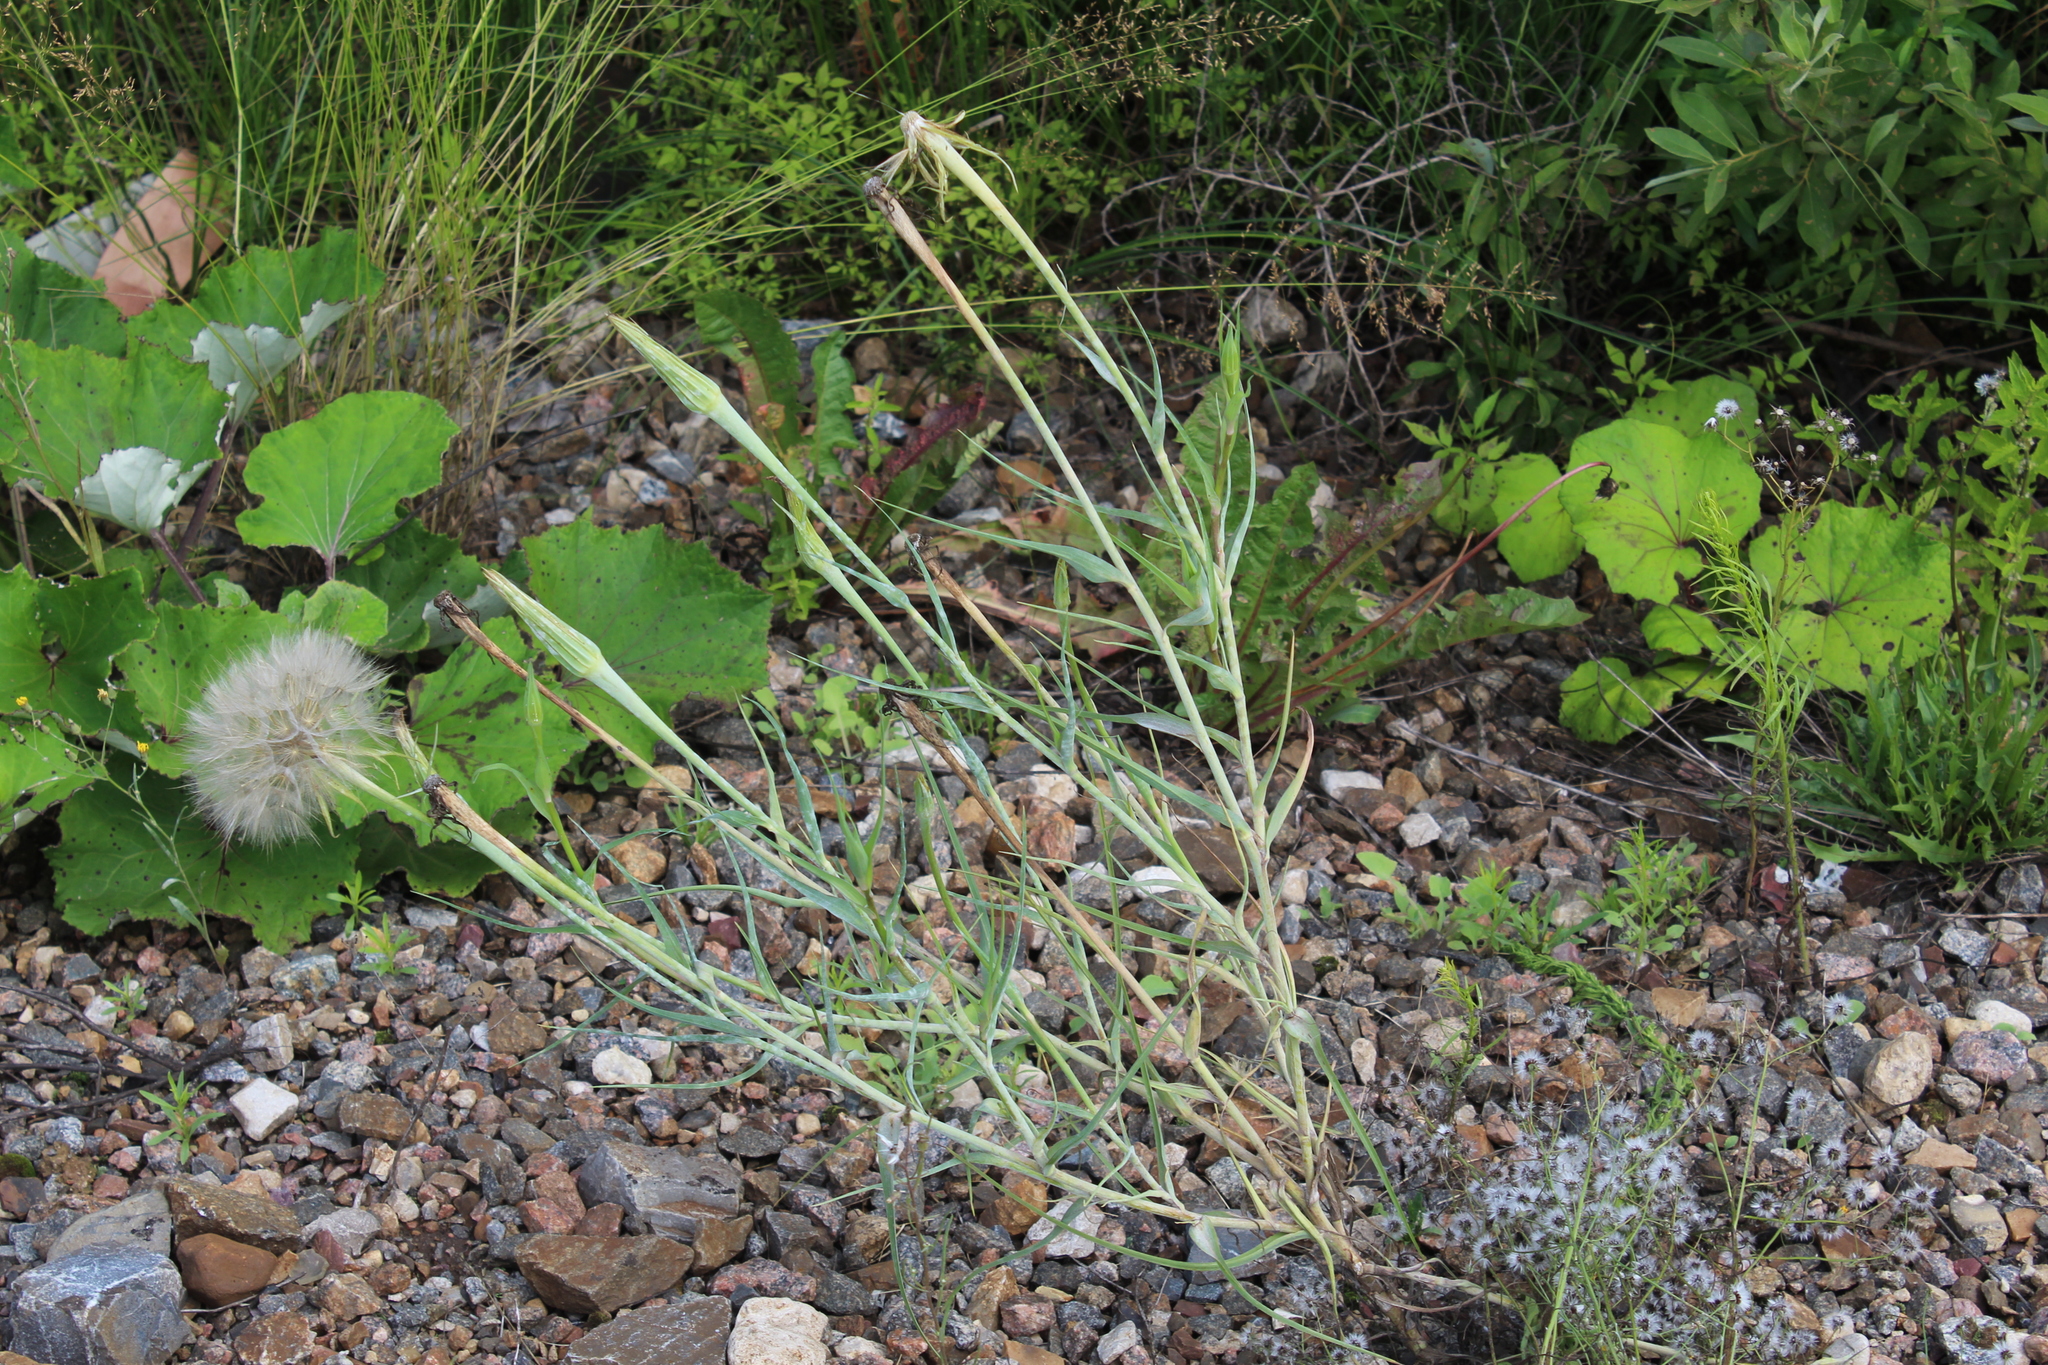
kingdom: Plantae
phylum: Tracheophyta
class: Magnoliopsida
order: Asterales
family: Asteraceae
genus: Tragopogon
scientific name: Tragopogon dubius
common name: Yellow salsify
